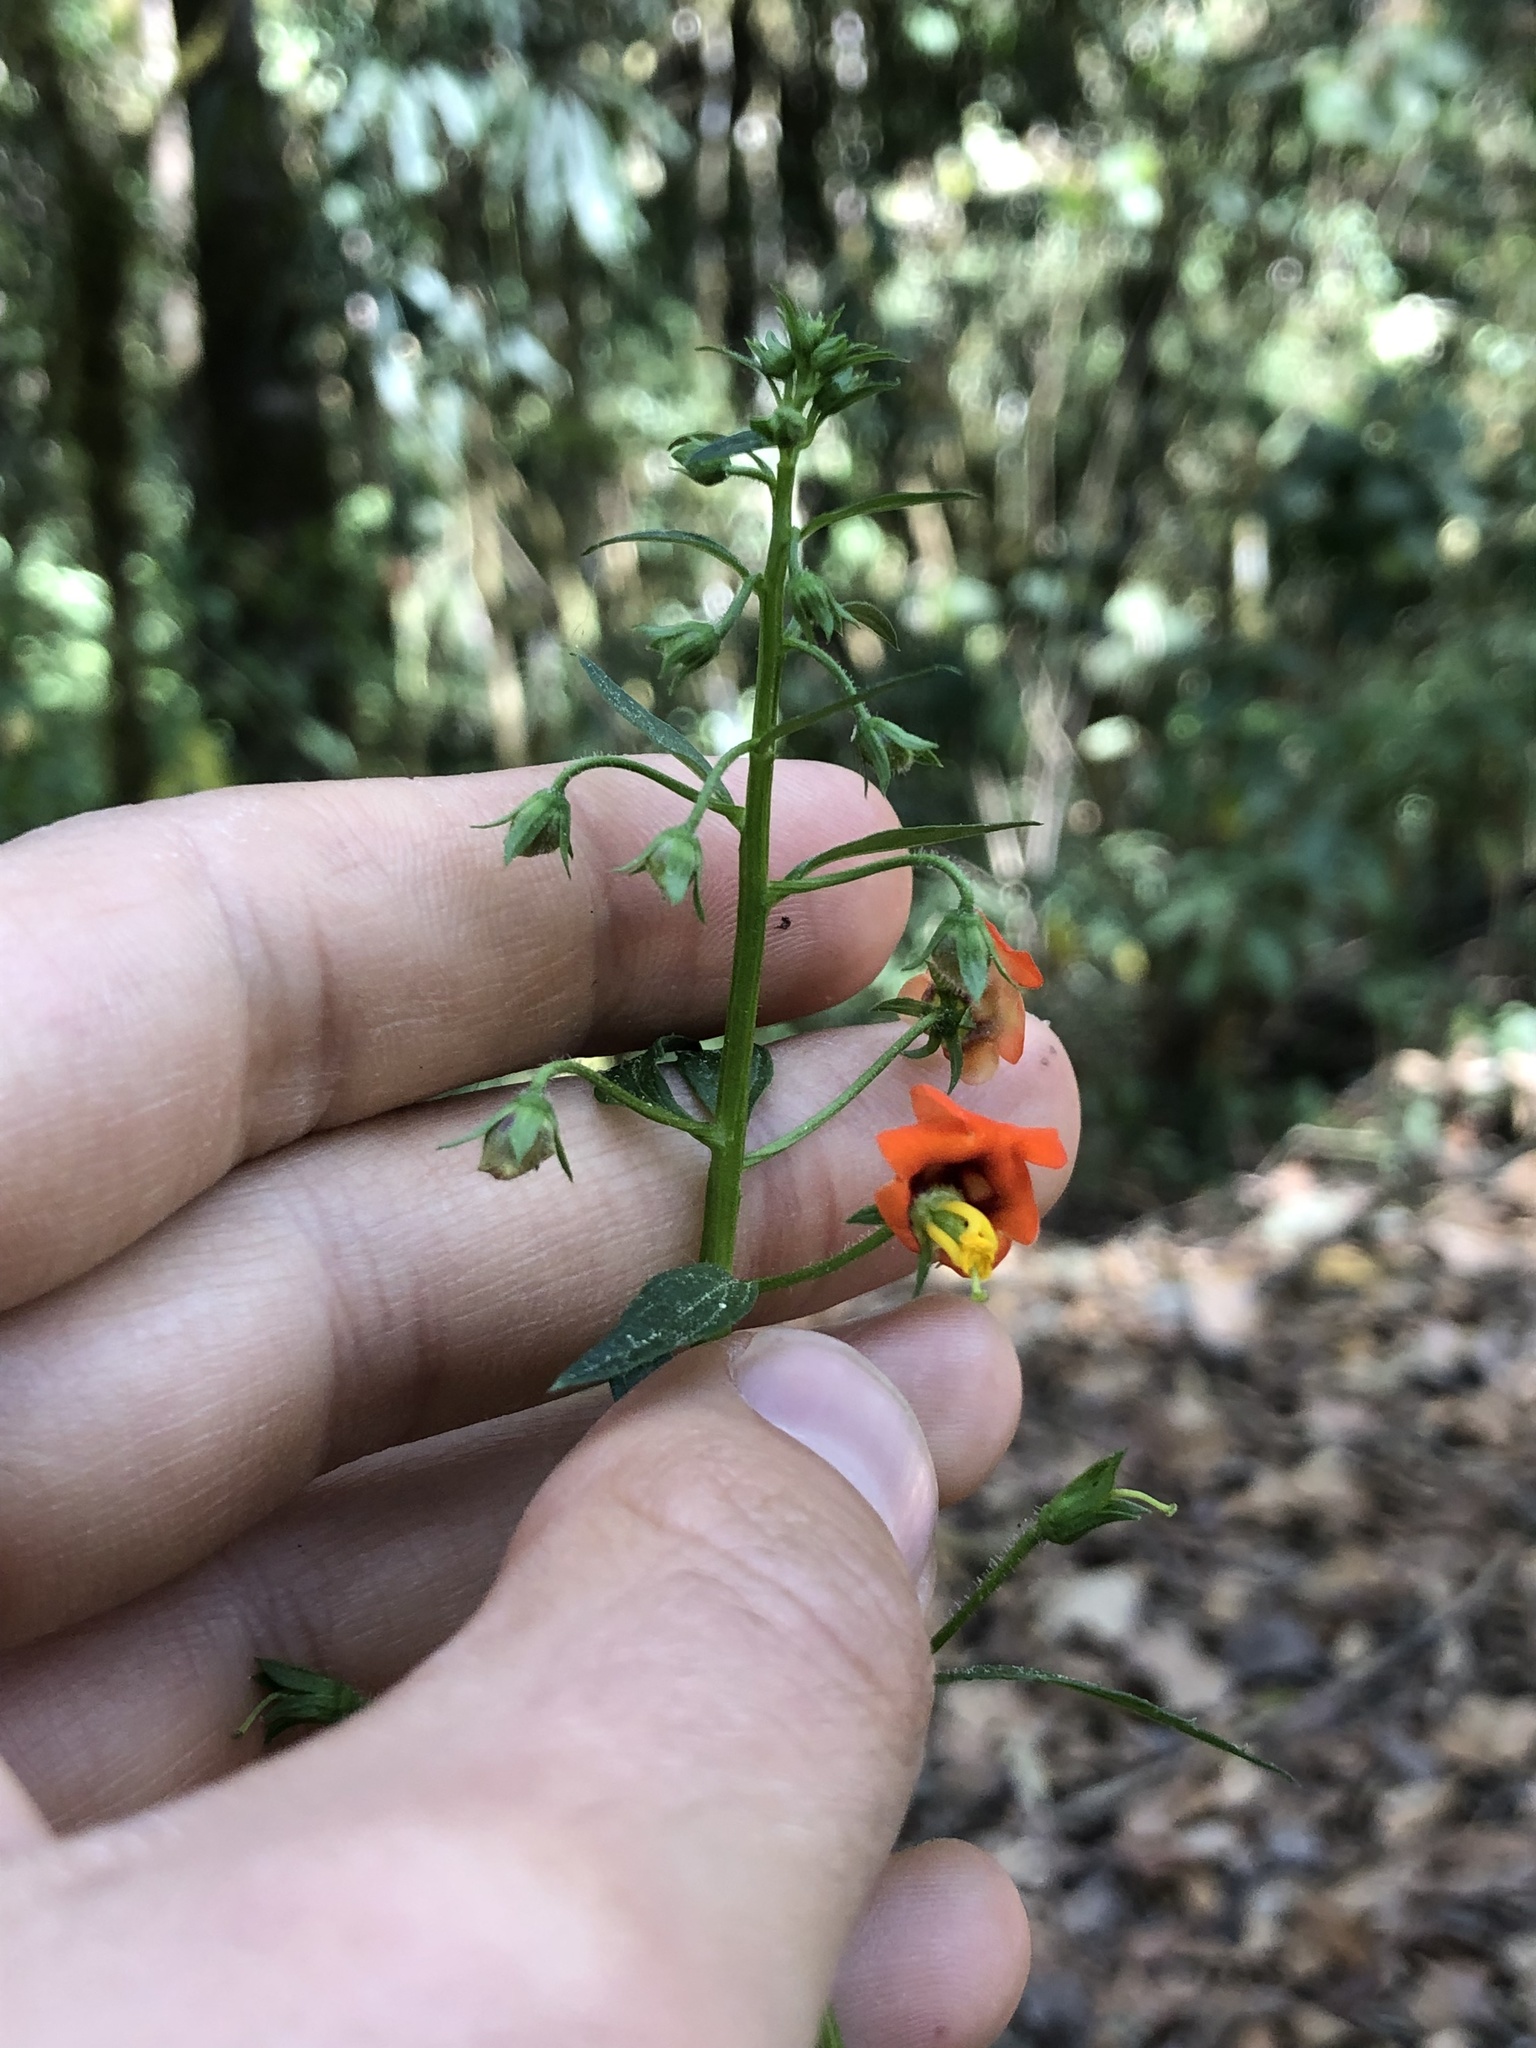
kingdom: Plantae
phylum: Tracheophyta
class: Magnoliopsida
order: Lamiales
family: Scrophulariaceae
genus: Alonsoa
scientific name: Alonsoa meridionalis
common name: Maskflower
